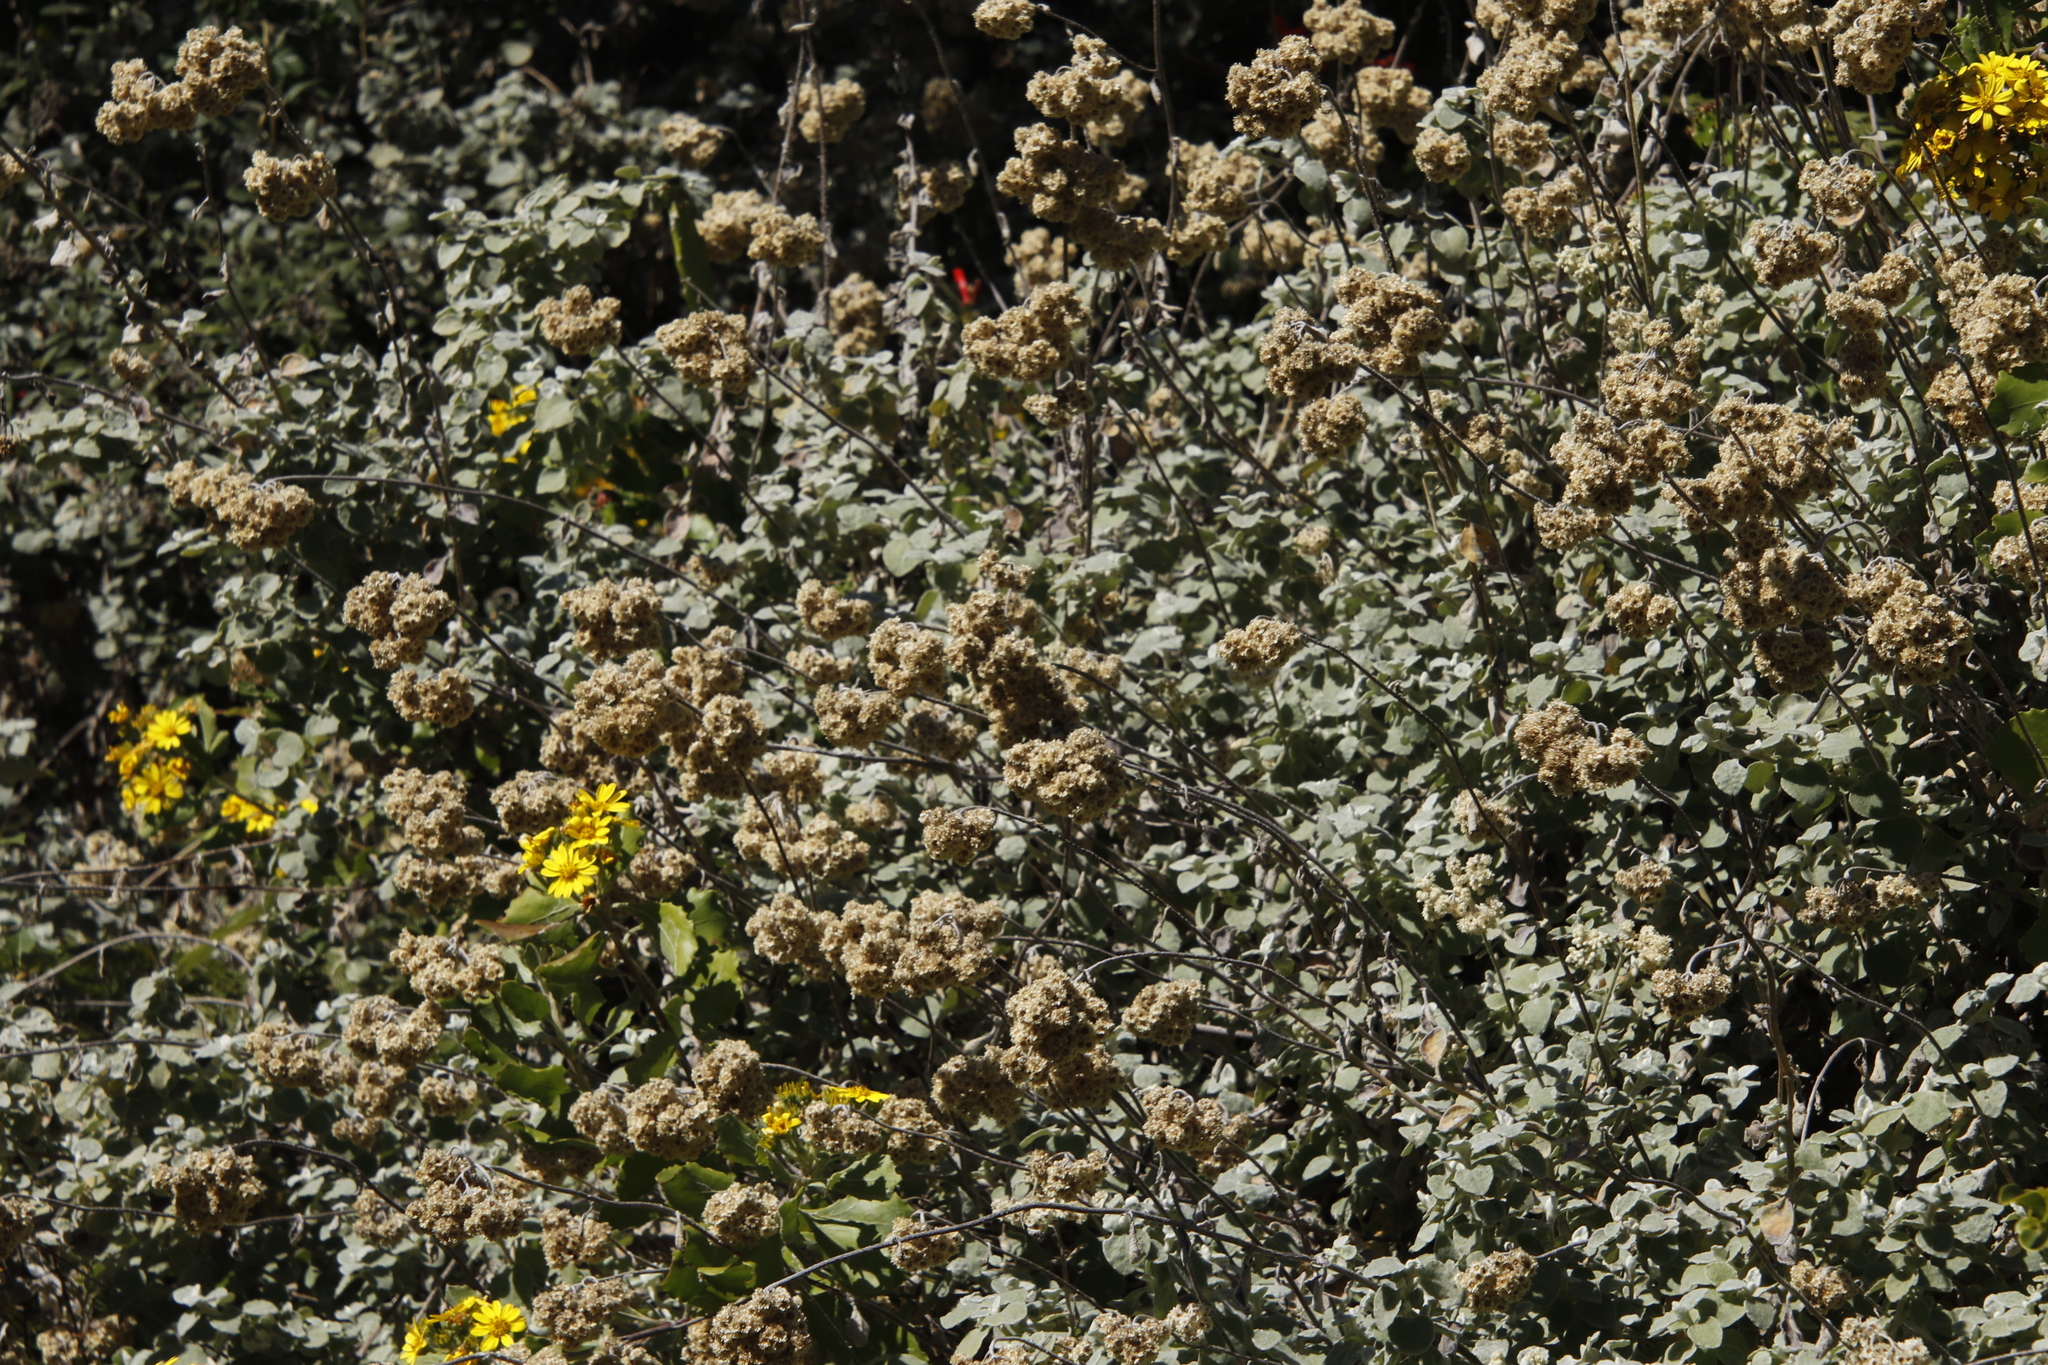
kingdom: Plantae
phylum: Tracheophyta
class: Magnoliopsida
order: Asterales
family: Asteraceae
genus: Helichrysum
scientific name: Helichrysum pandurifolium
